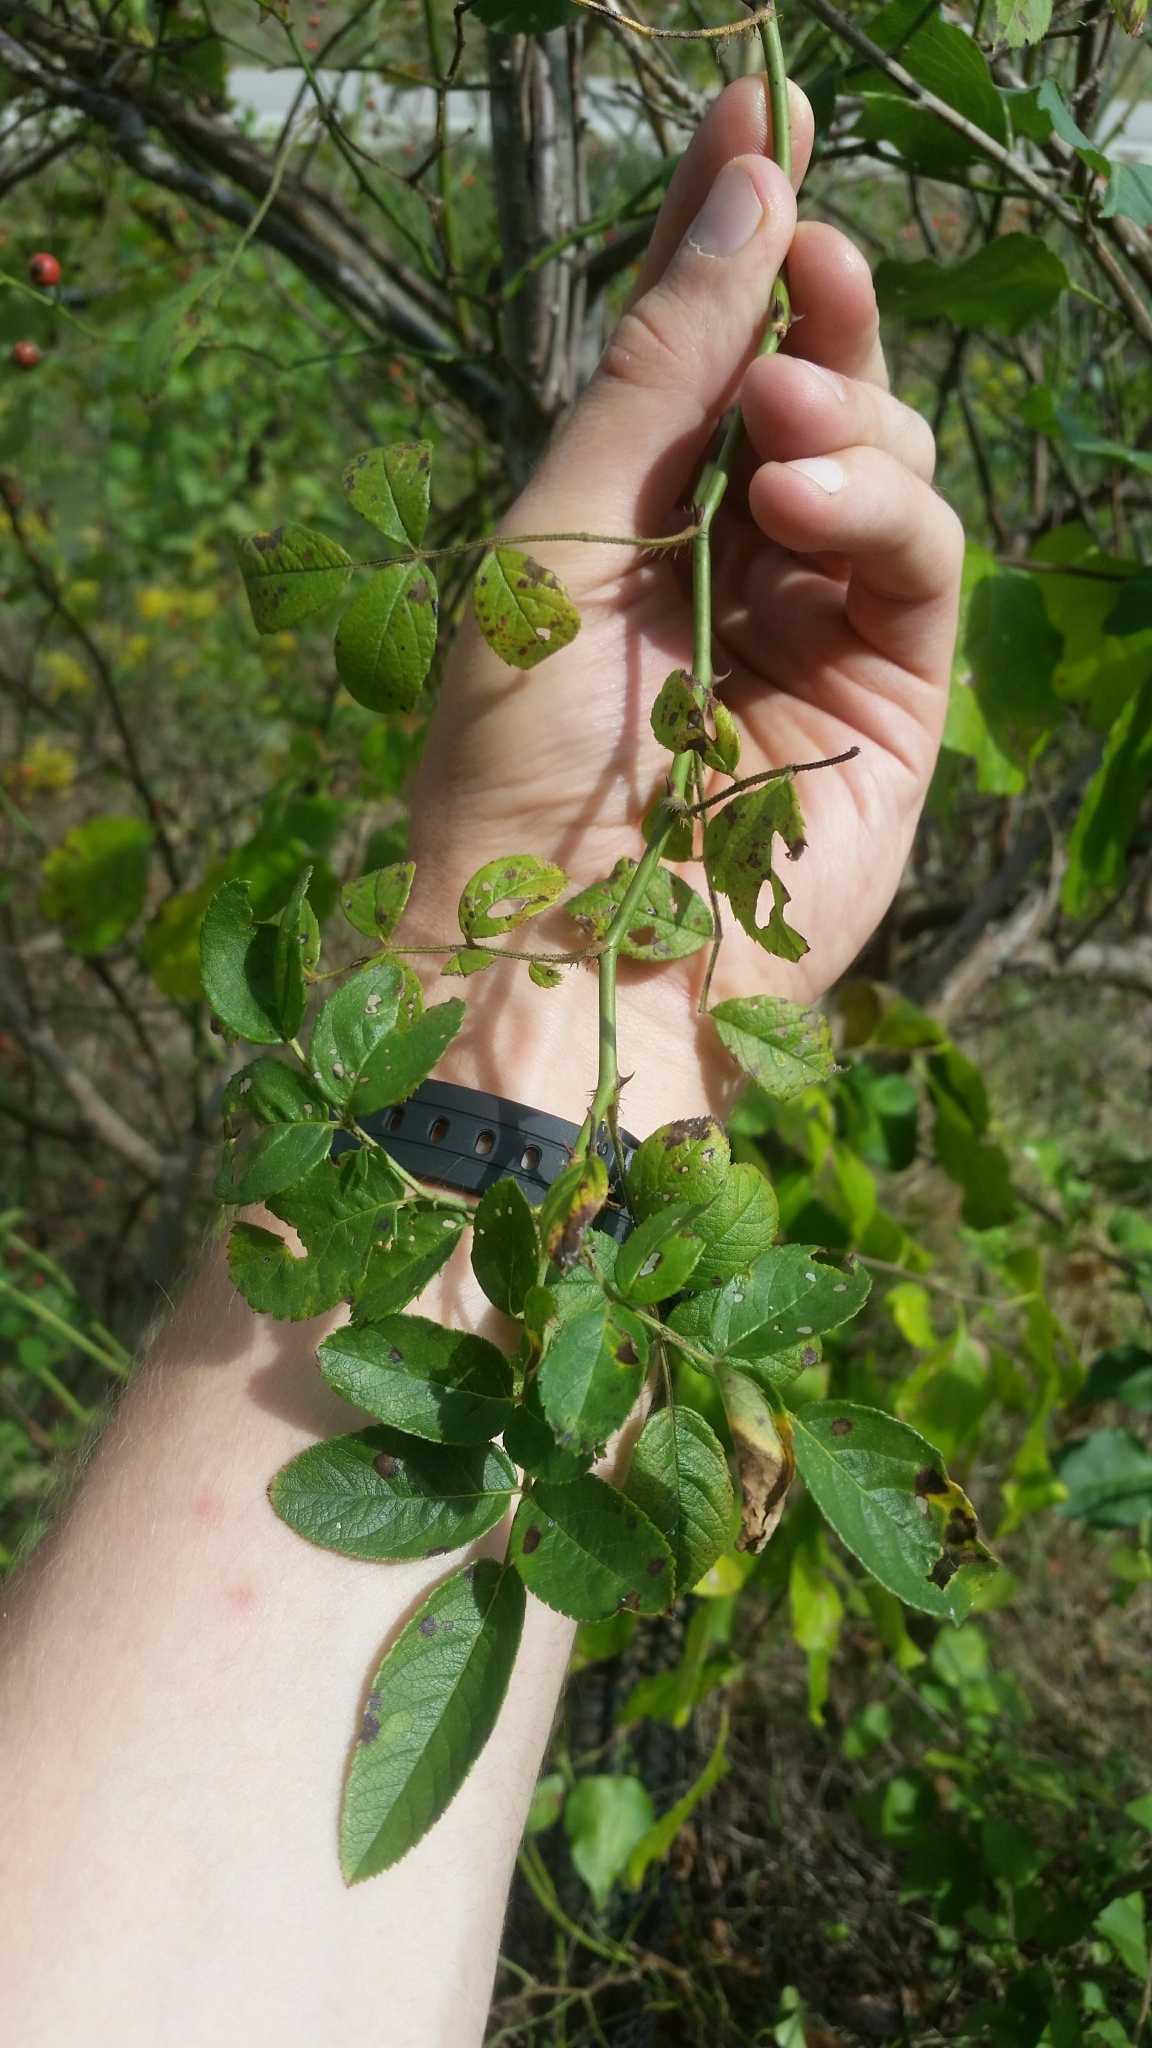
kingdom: Plantae
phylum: Tracheophyta
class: Magnoliopsida
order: Rosales
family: Rosaceae
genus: Rosa
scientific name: Rosa multiflora
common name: Multiflora rose
